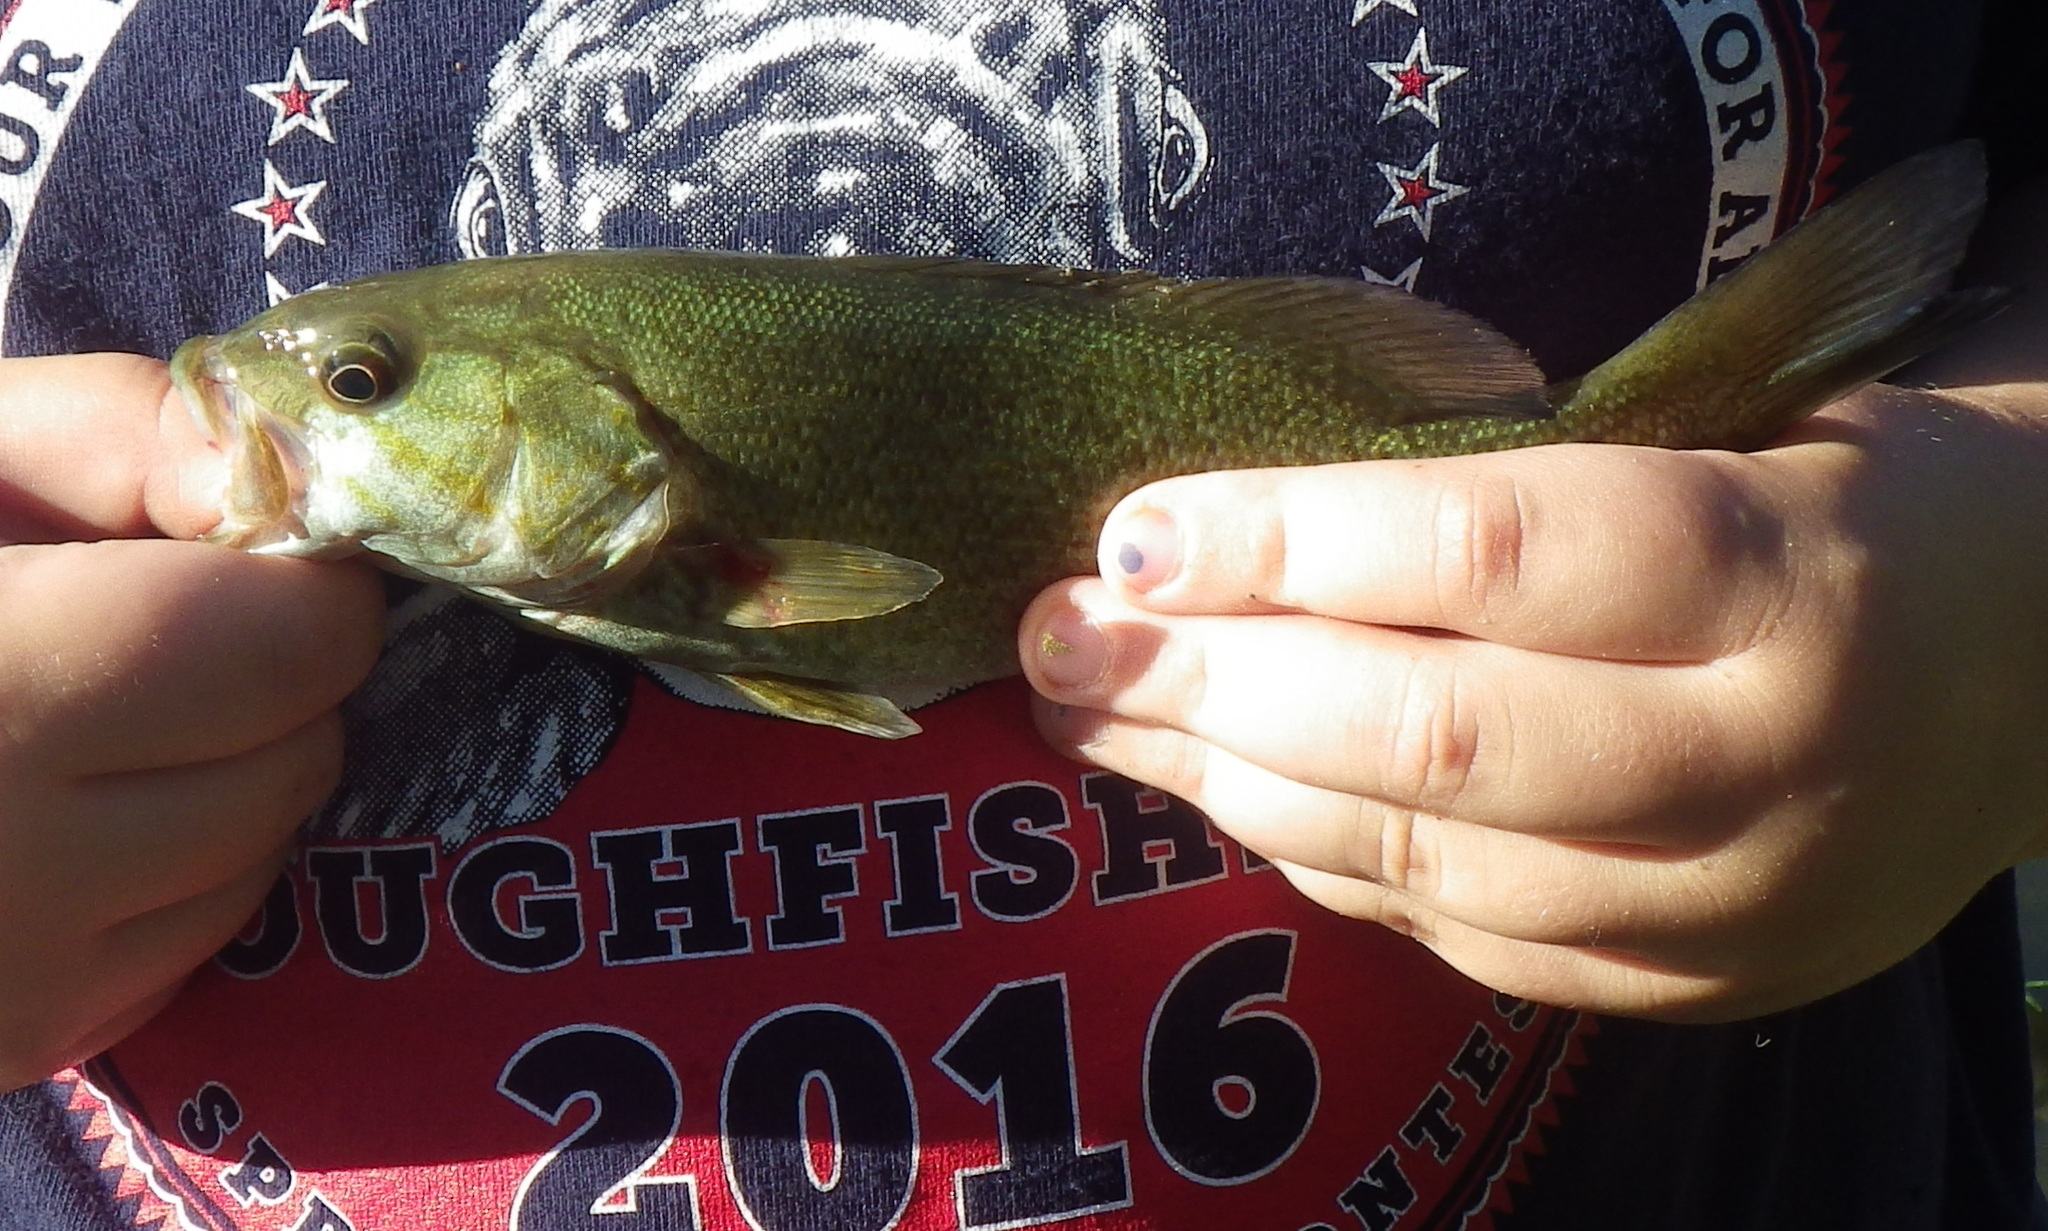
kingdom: Animalia
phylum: Chordata
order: Perciformes
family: Centrarchidae
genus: Micropterus
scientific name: Micropterus dolomieu
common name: Smallmouth bass
